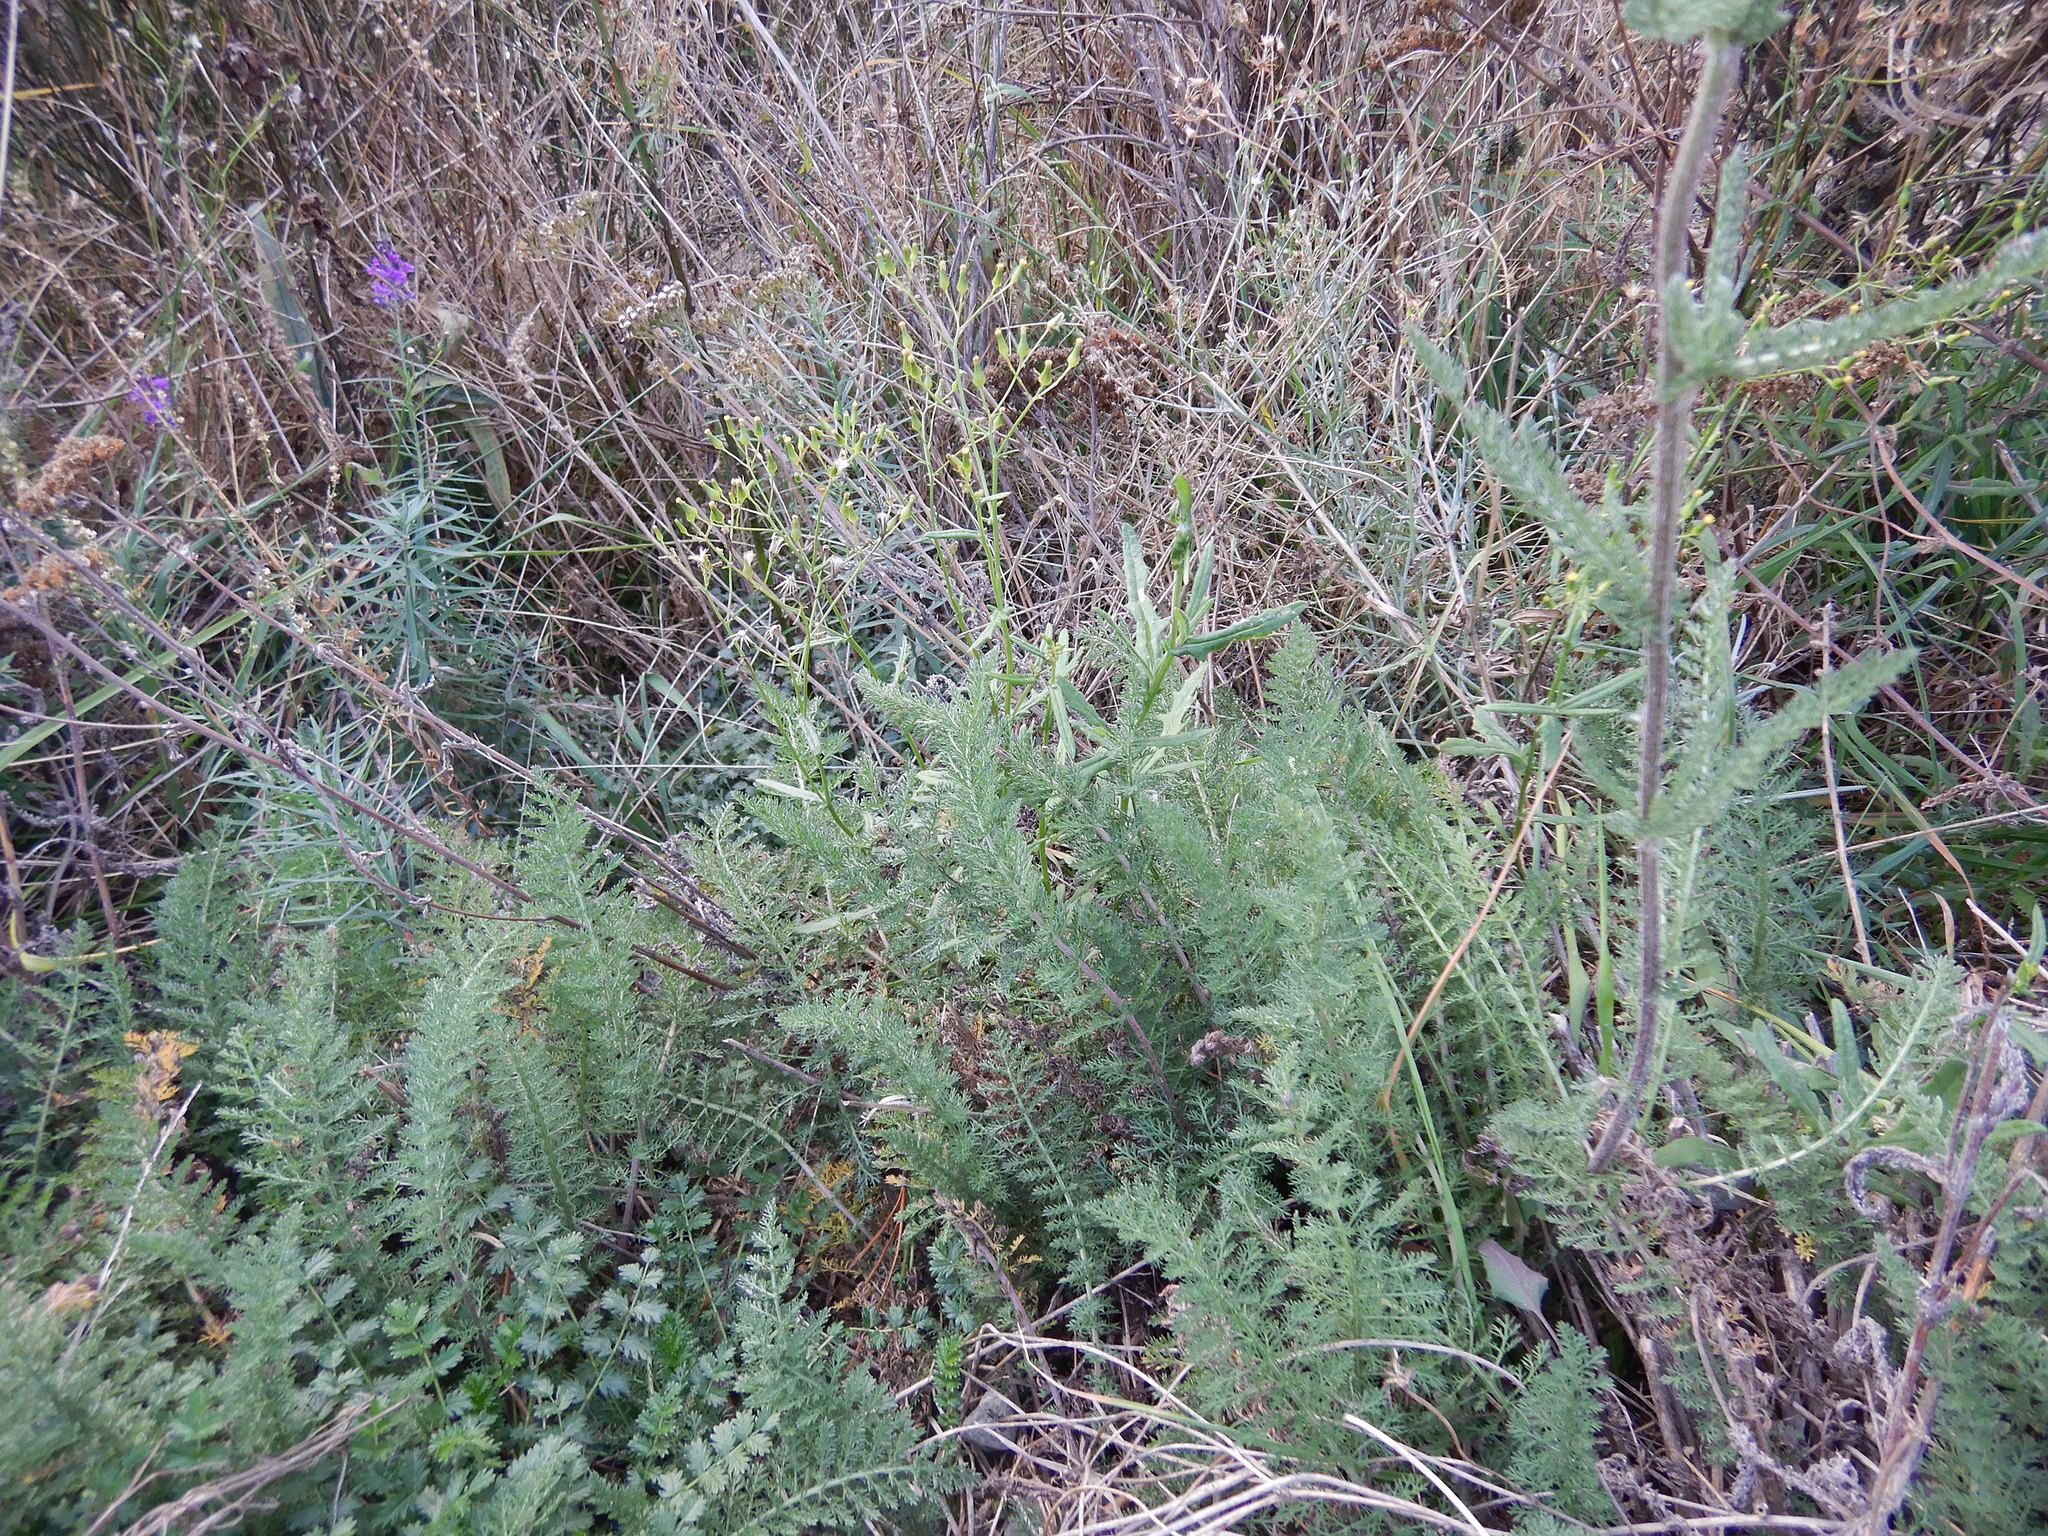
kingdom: Plantae
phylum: Tracheophyta
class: Magnoliopsida
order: Asterales
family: Asteraceae
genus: Achillea
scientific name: Achillea millefolium
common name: Yarrow
